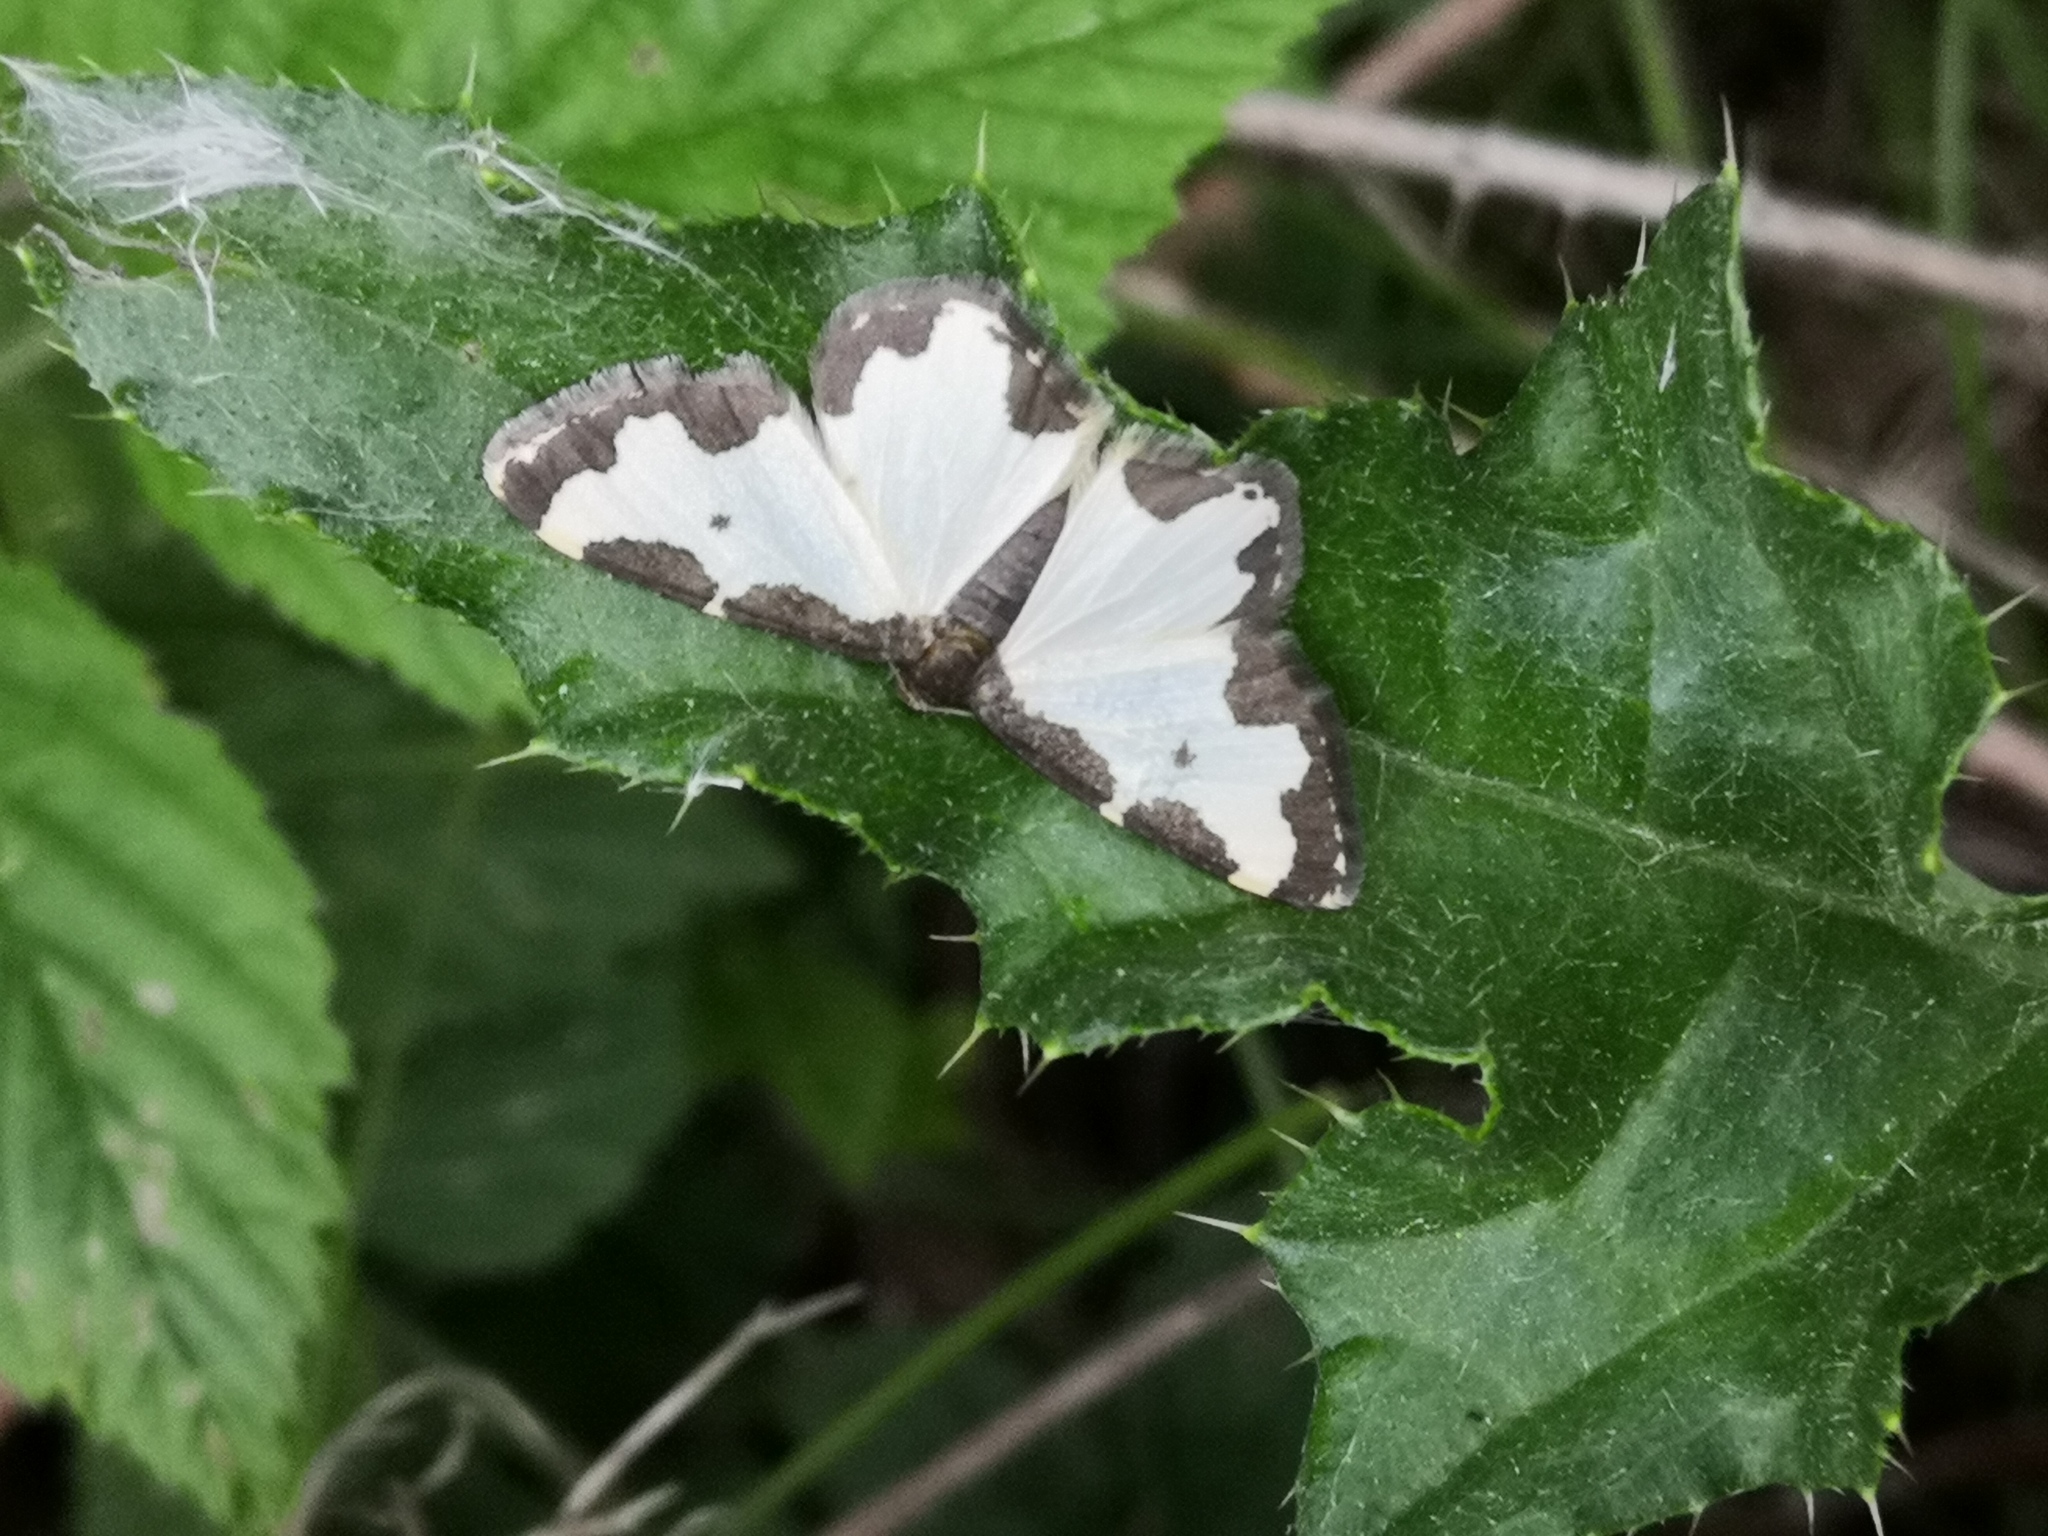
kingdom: Animalia
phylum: Arthropoda
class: Insecta
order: Lepidoptera
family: Geometridae
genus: Lomaspilis
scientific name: Lomaspilis marginata
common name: Clouded border
